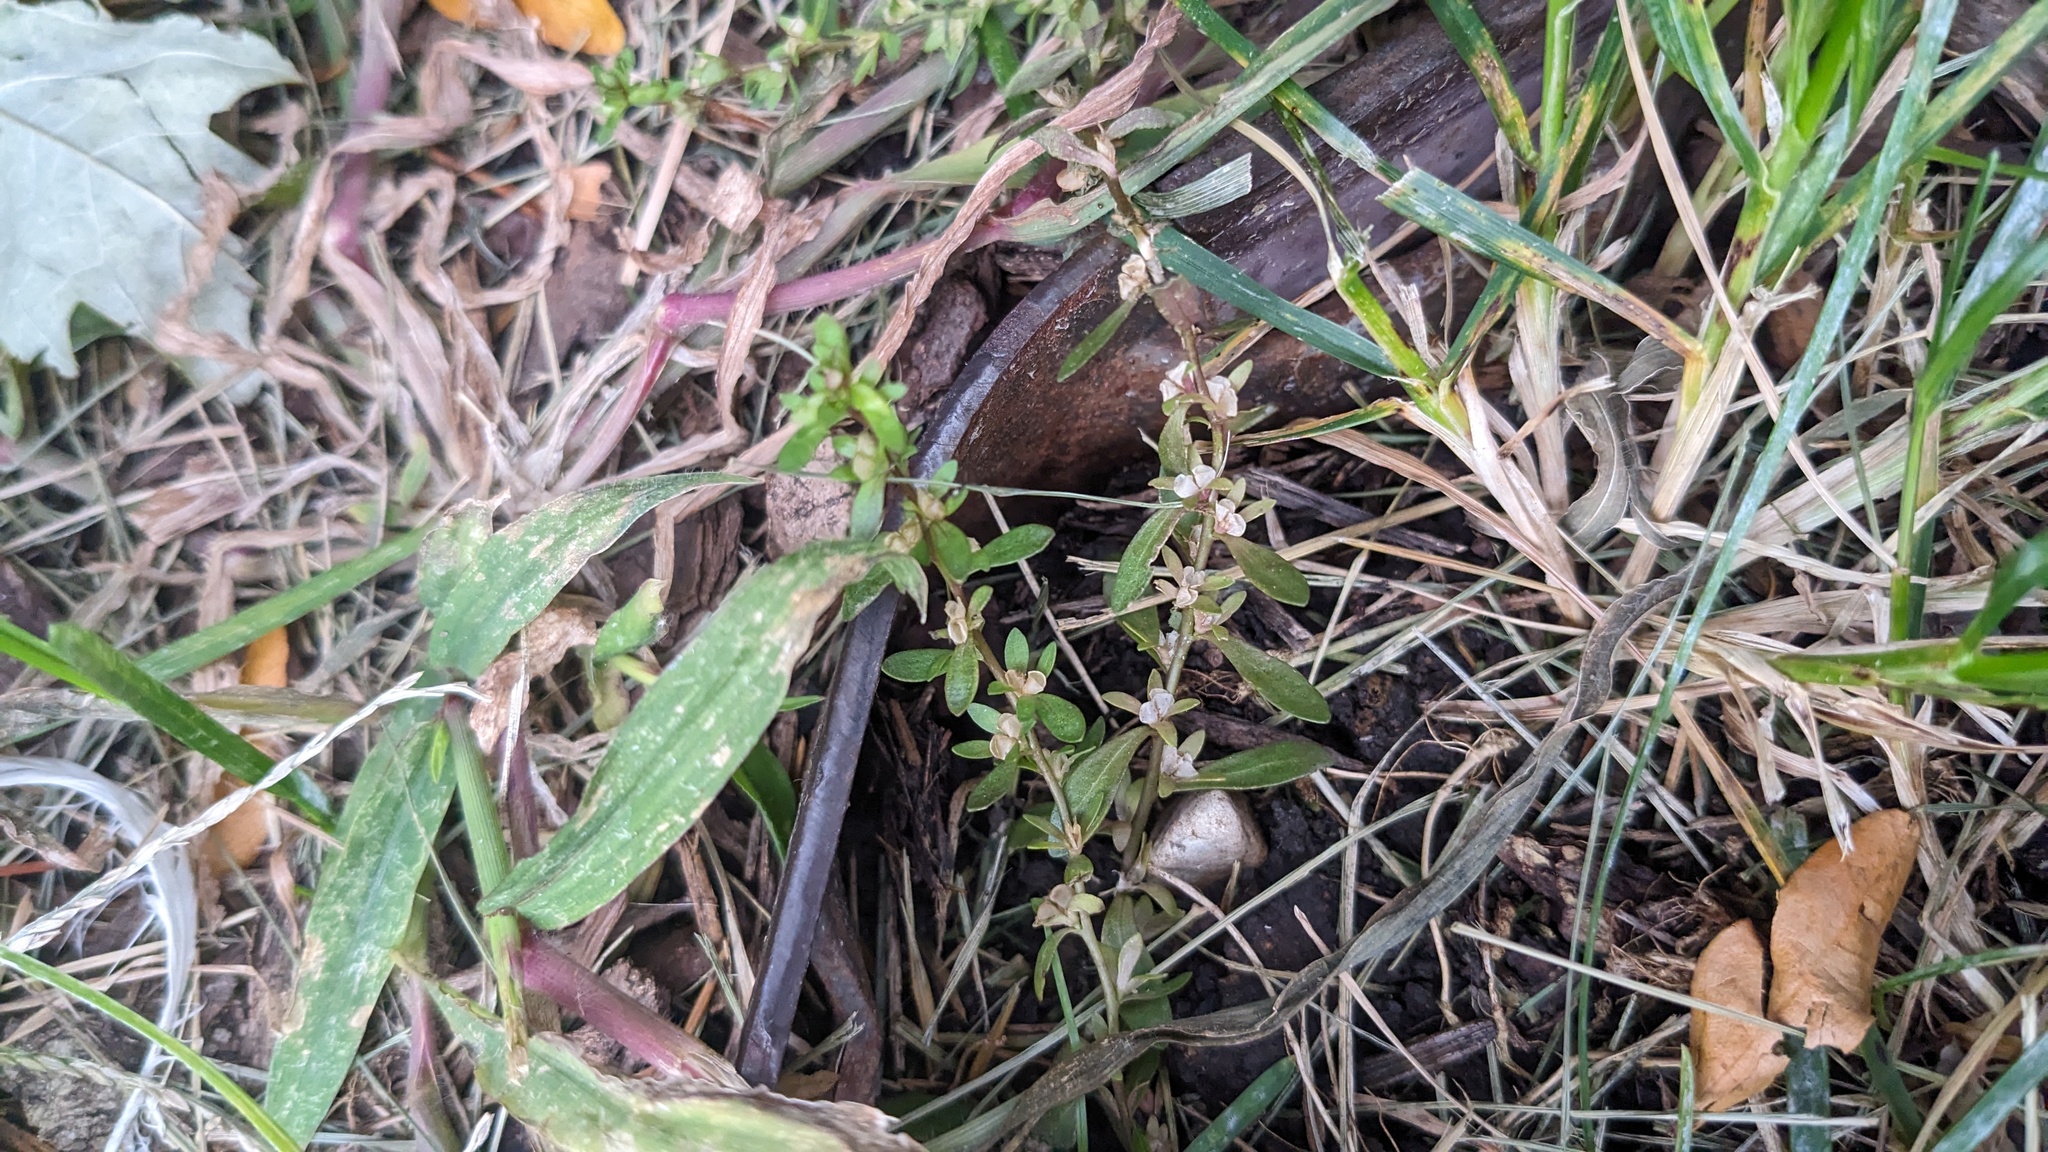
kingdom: Plantae
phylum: Tracheophyta
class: Magnoliopsida
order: Lamiales
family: Plantaginaceae
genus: Veronica
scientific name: Veronica peregrina
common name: Neckweed
